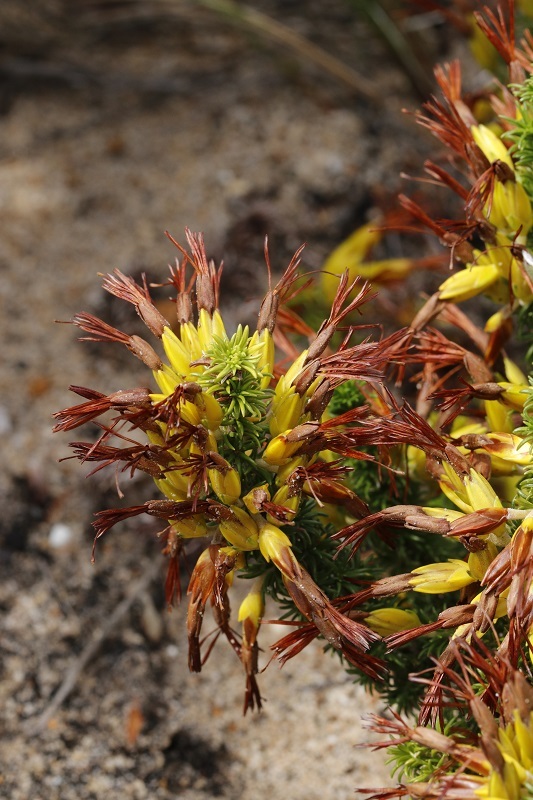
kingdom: Plantae
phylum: Tracheophyta
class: Magnoliopsida
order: Ericales
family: Ericaceae
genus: Erica
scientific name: Erica coccinea
